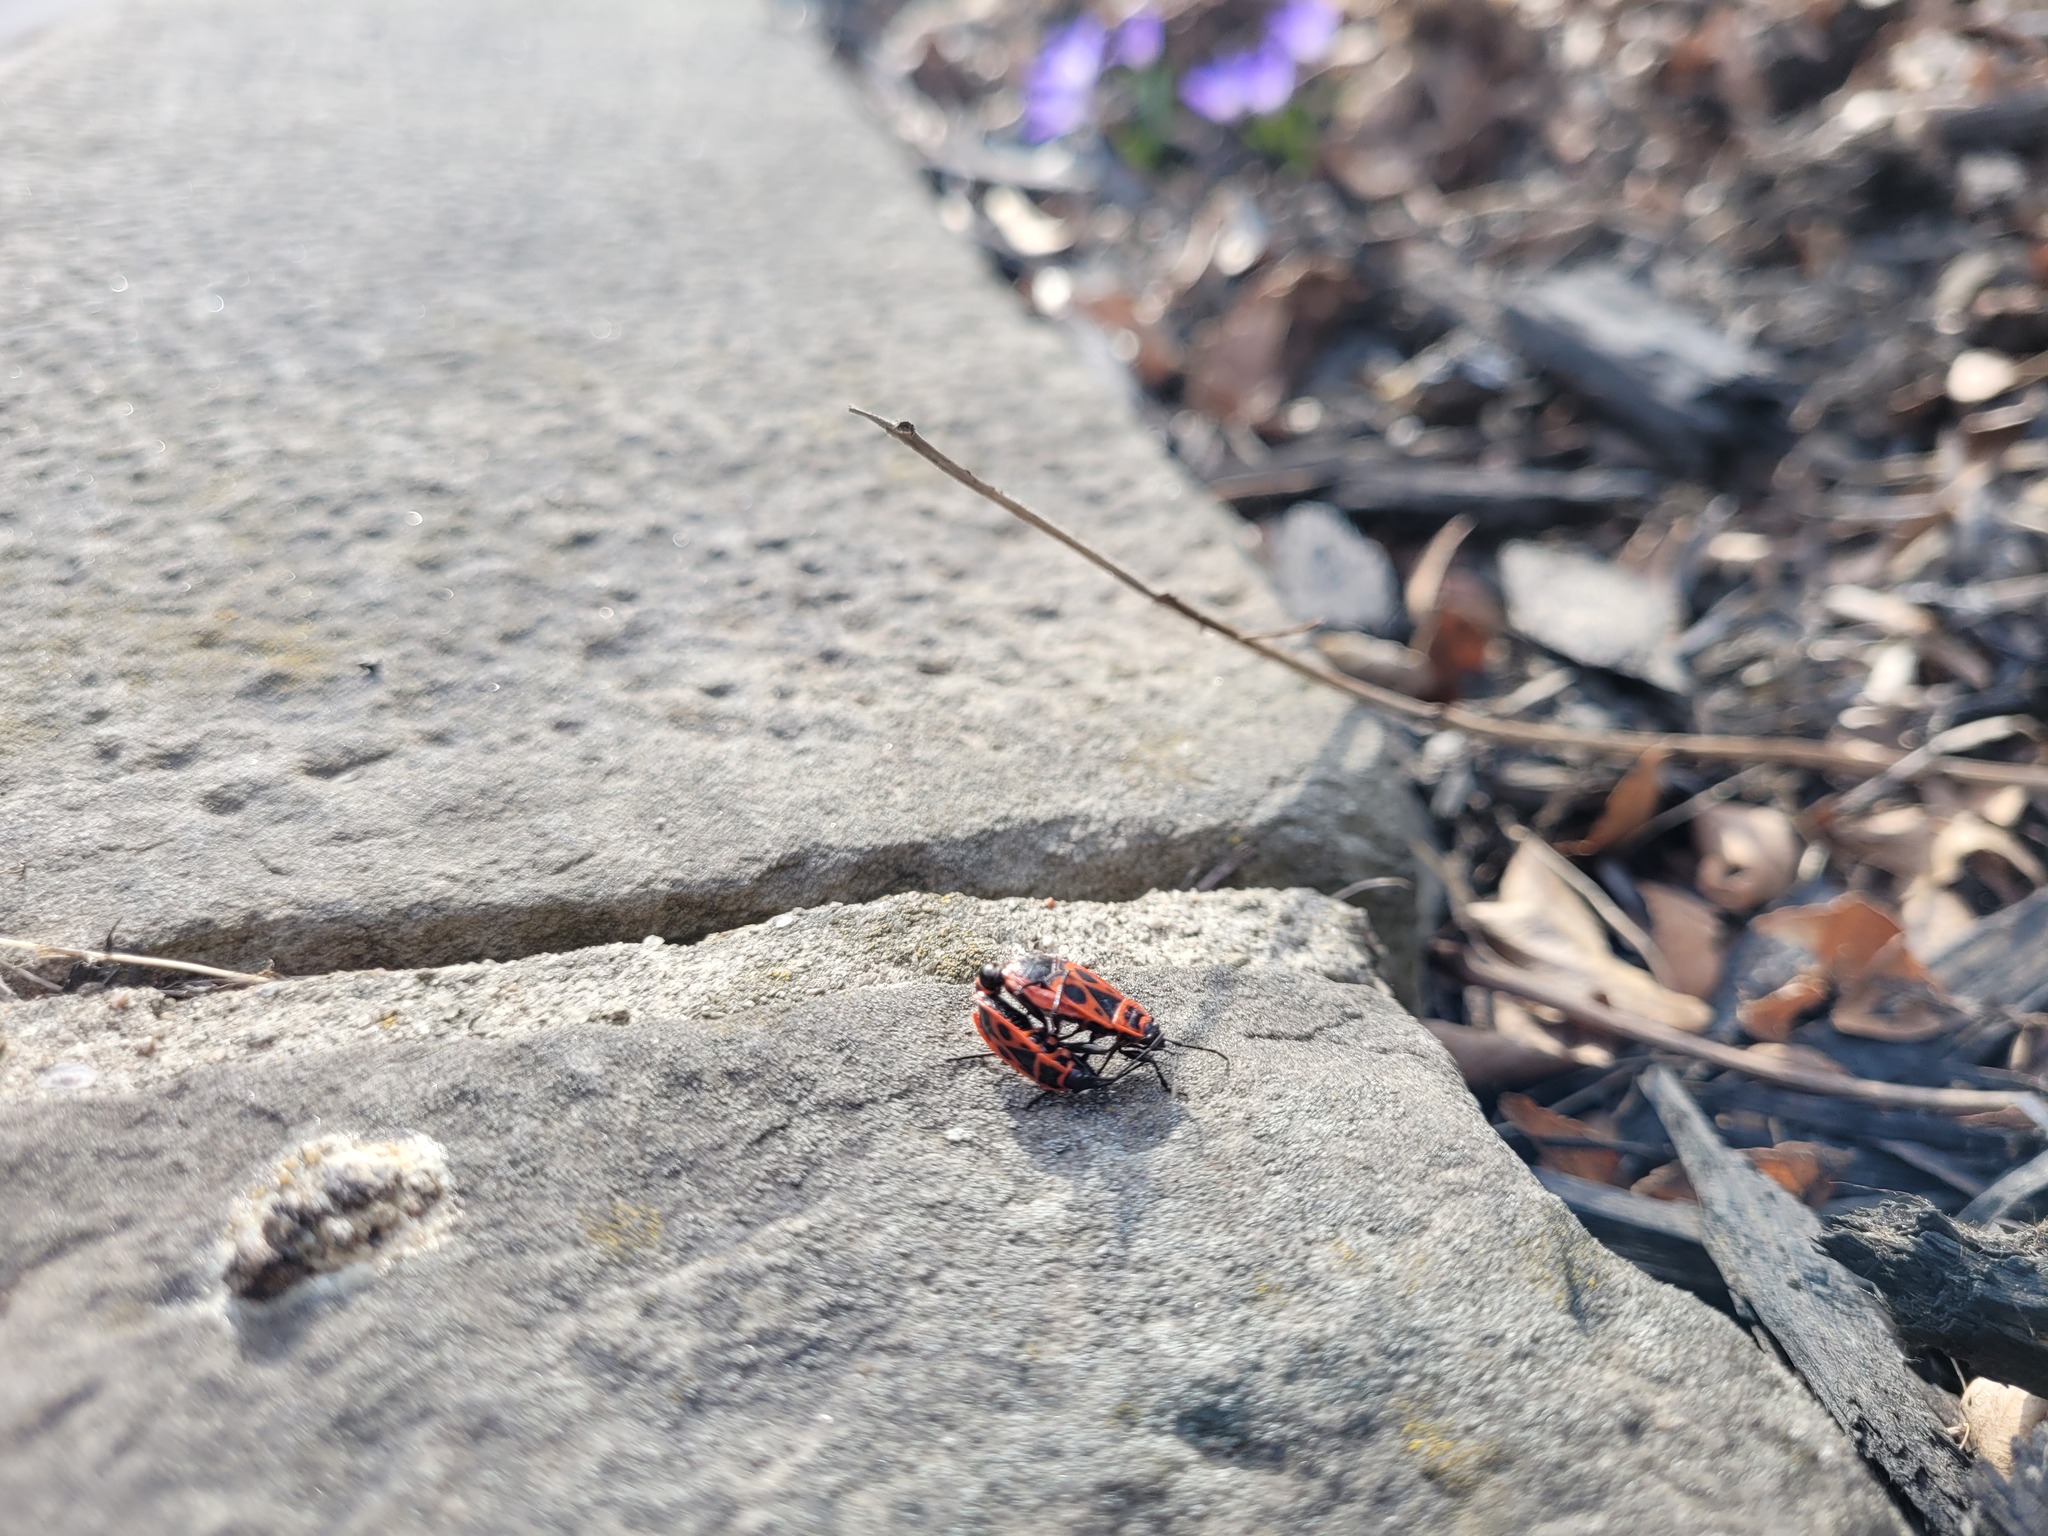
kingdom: Animalia
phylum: Arthropoda
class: Insecta
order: Hemiptera
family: Pyrrhocoridae
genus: Pyrrhocoris
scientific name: Pyrrhocoris apterus
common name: Firebug
